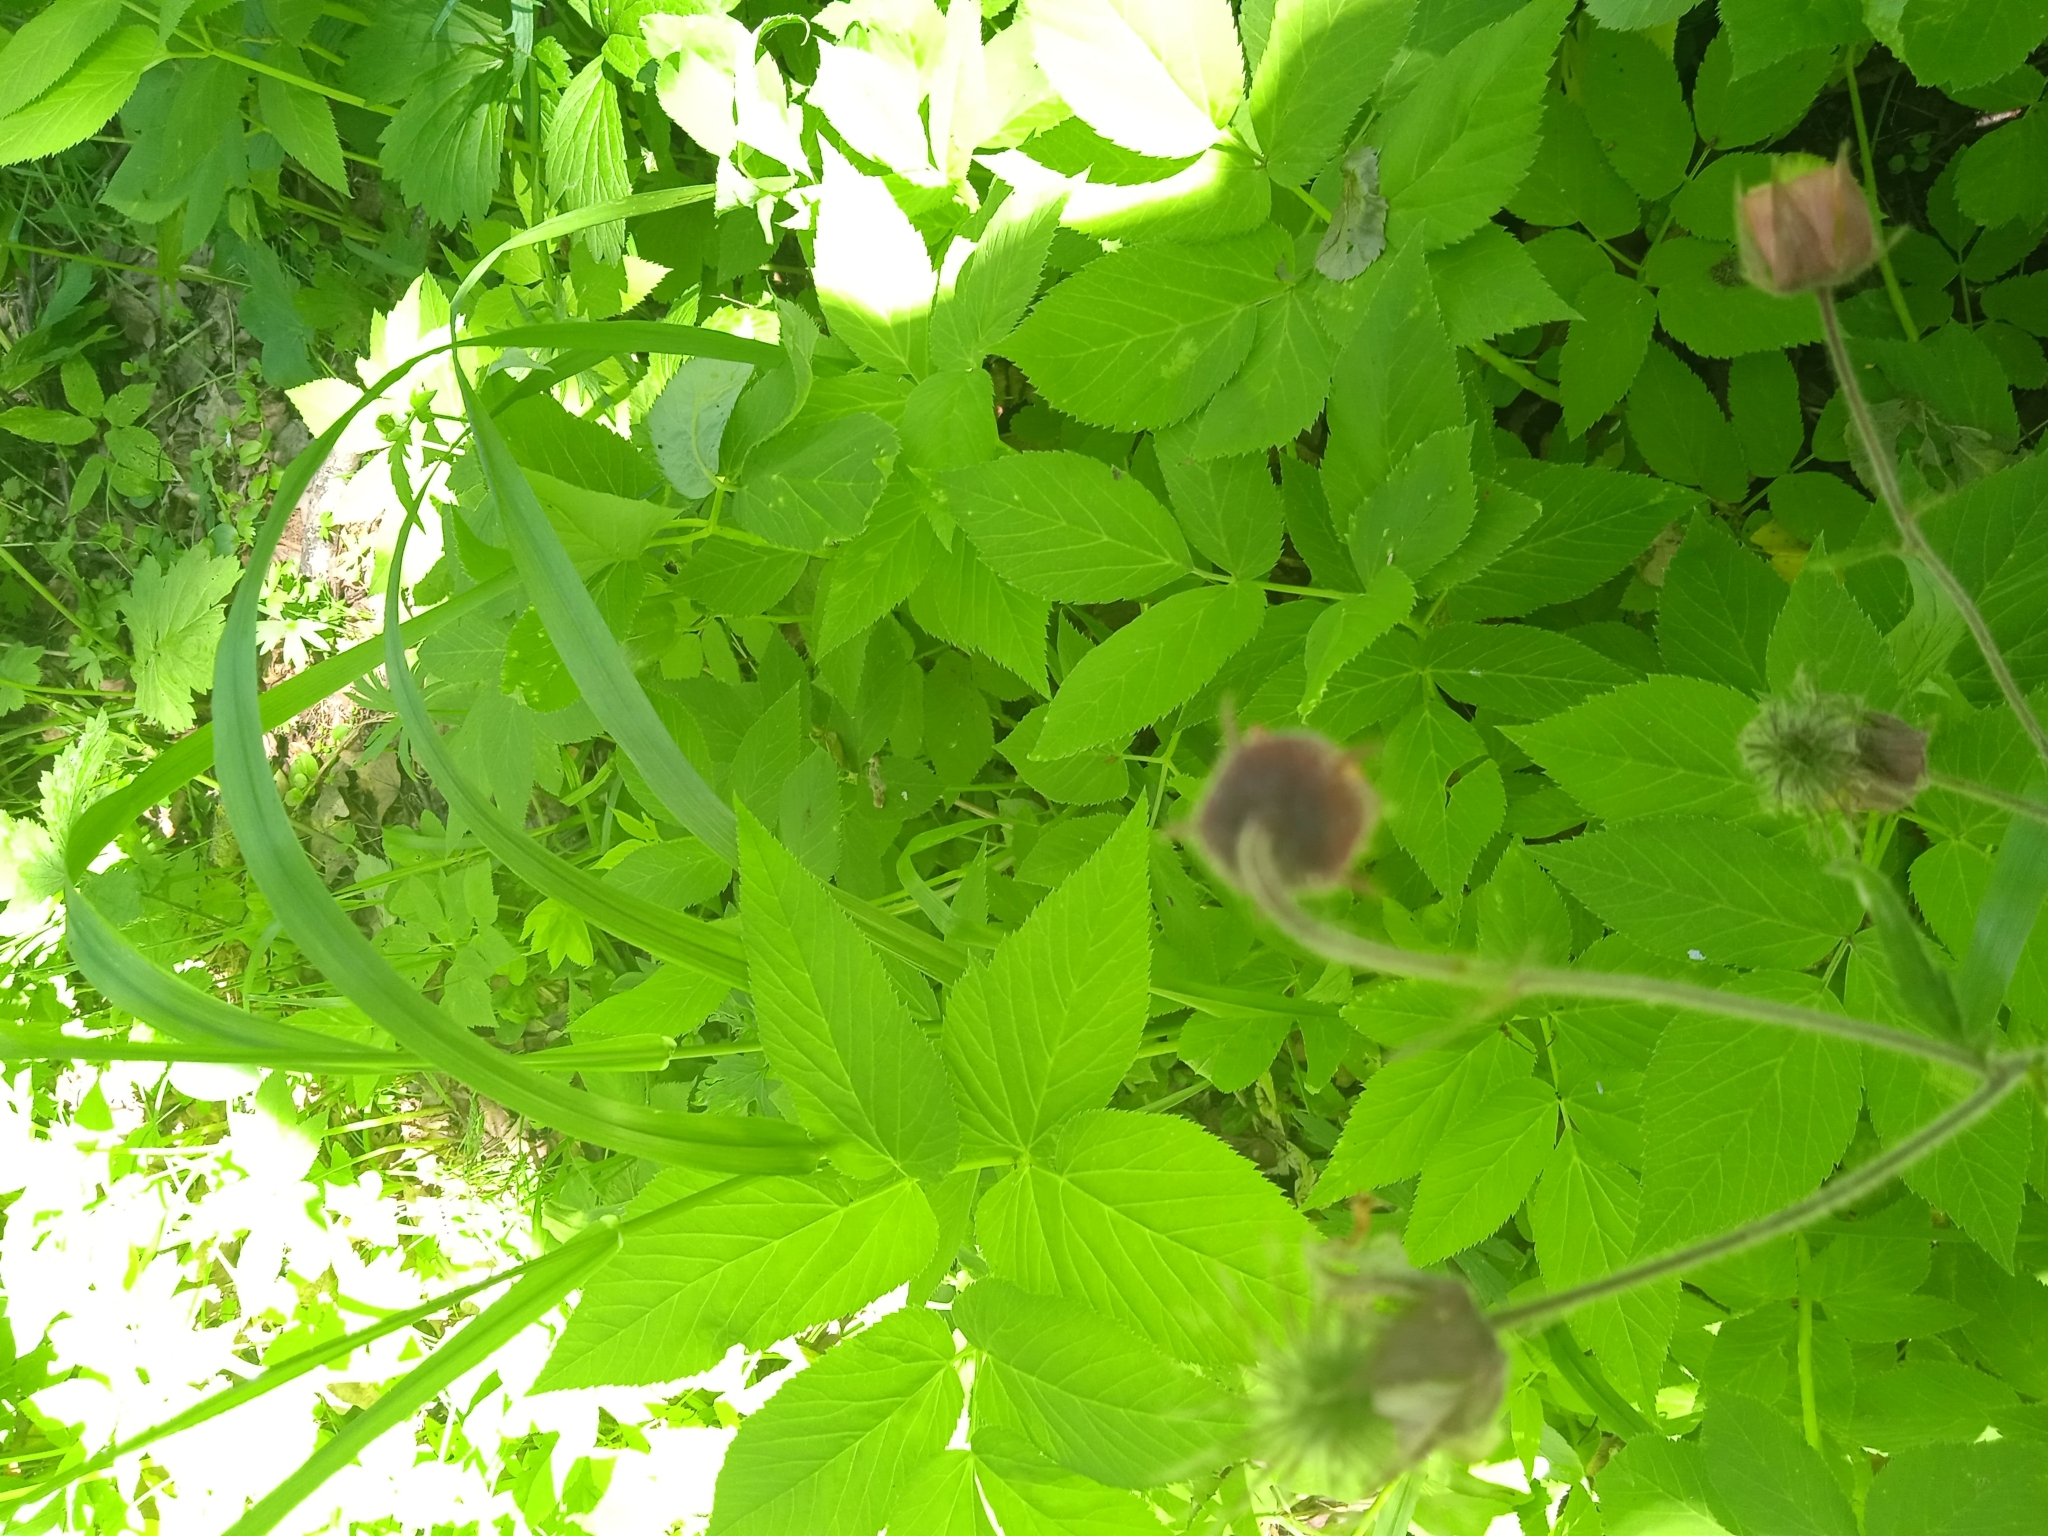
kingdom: Plantae
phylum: Tracheophyta
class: Magnoliopsida
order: Rosales
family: Rosaceae
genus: Geum
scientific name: Geum rivale
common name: Water avens
